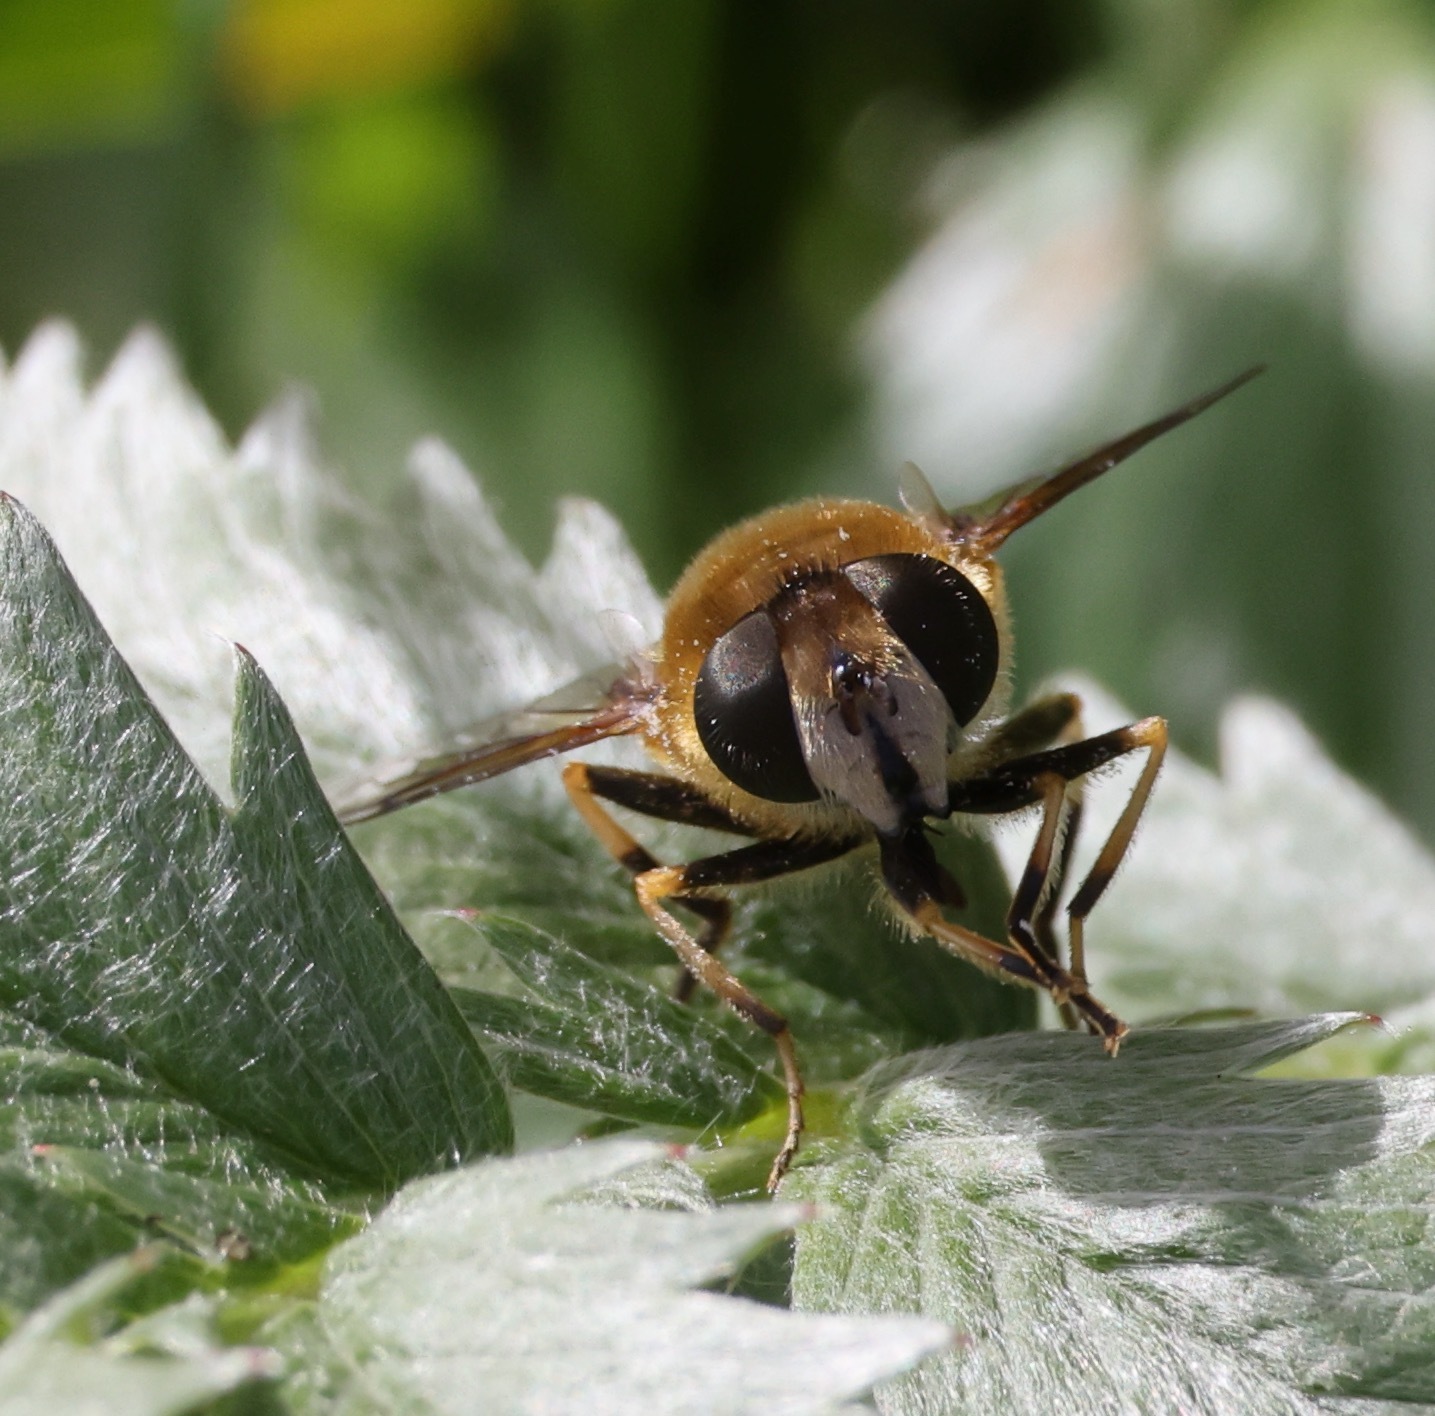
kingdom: Animalia
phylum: Arthropoda
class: Insecta
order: Diptera
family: Syrphidae
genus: Eoseristalis
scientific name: Eoseristalis
